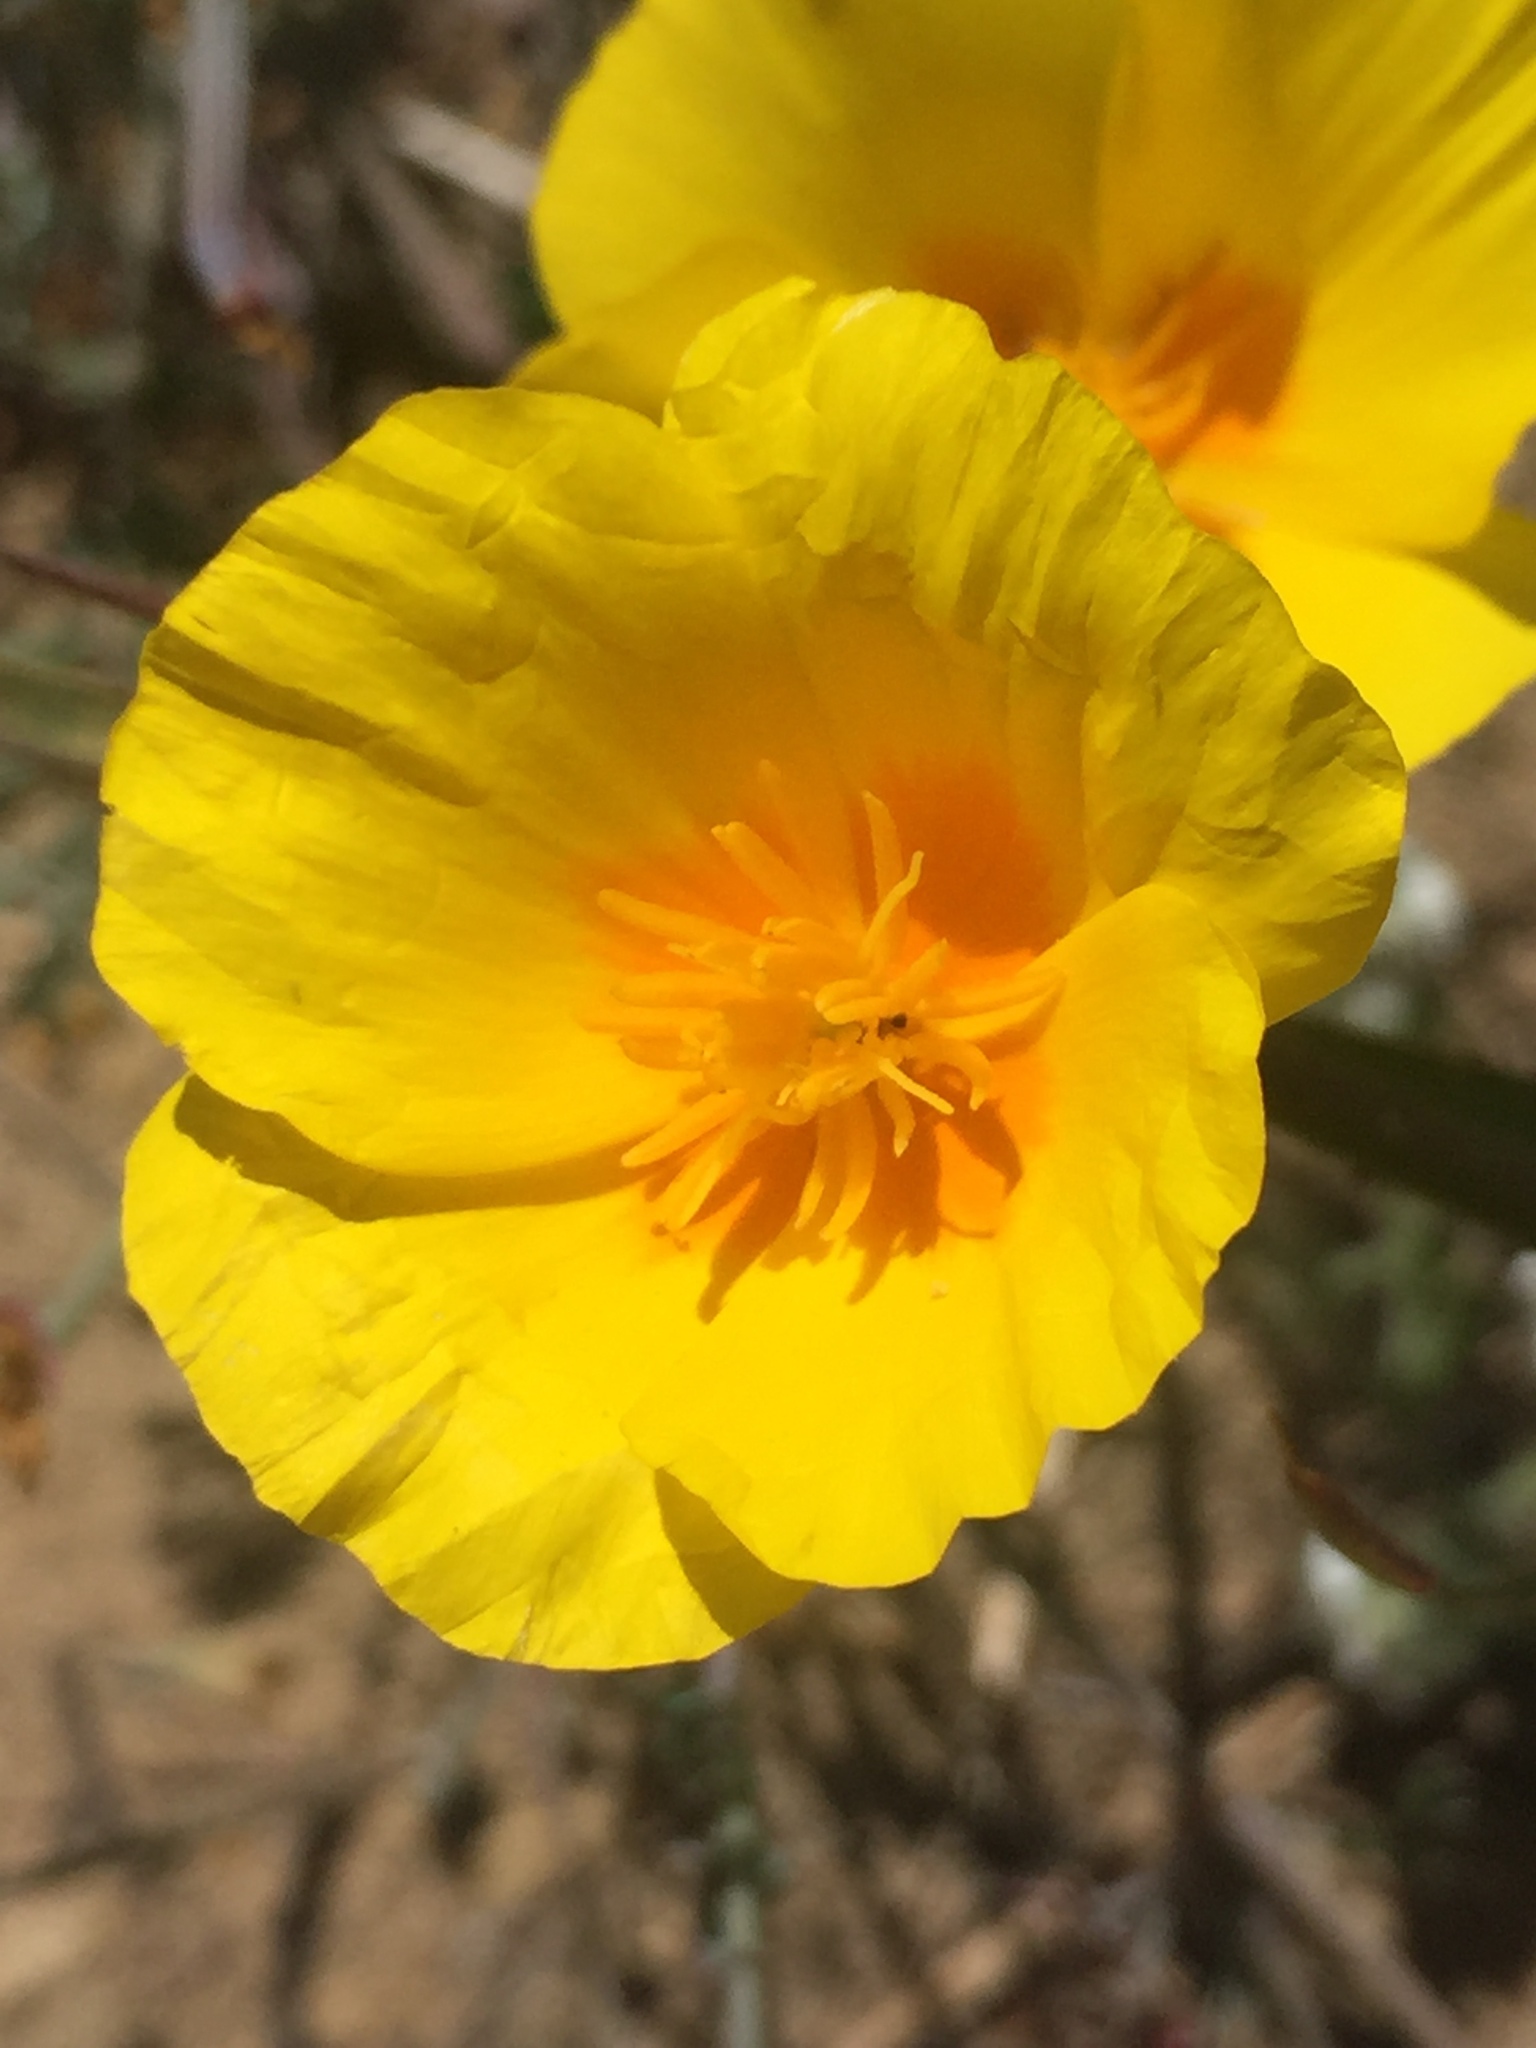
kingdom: Plantae
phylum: Tracheophyta
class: Magnoliopsida
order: Ranunculales
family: Papaveraceae
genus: Eschscholzia
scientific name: Eschscholzia californica
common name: California poppy
